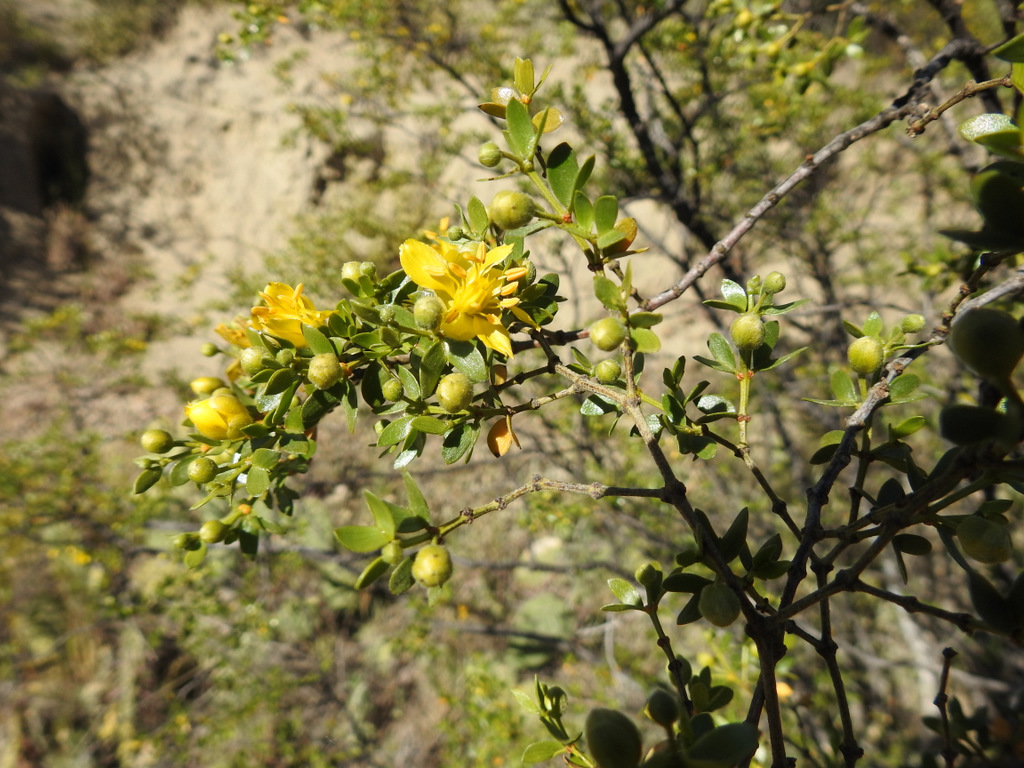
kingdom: Plantae
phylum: Tracheophyta
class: Magnoliopsida
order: Zygophyllales
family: Zygophyllaceae
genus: Larrea
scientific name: Larrea divaricata
